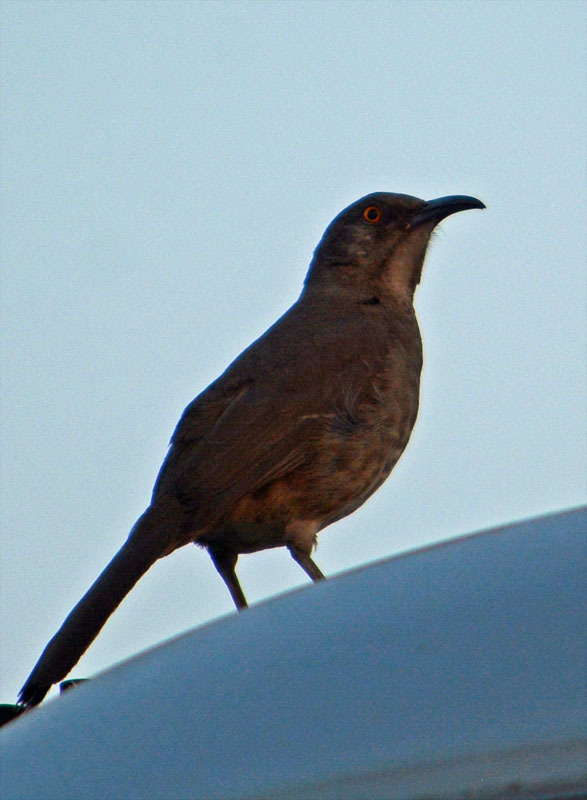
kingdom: Animalia
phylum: Chordata
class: Aves
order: Passeriformes
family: Mimidae
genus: Toxostoma
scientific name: Toxostoma curvirostre
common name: Curve-billed thrasher
